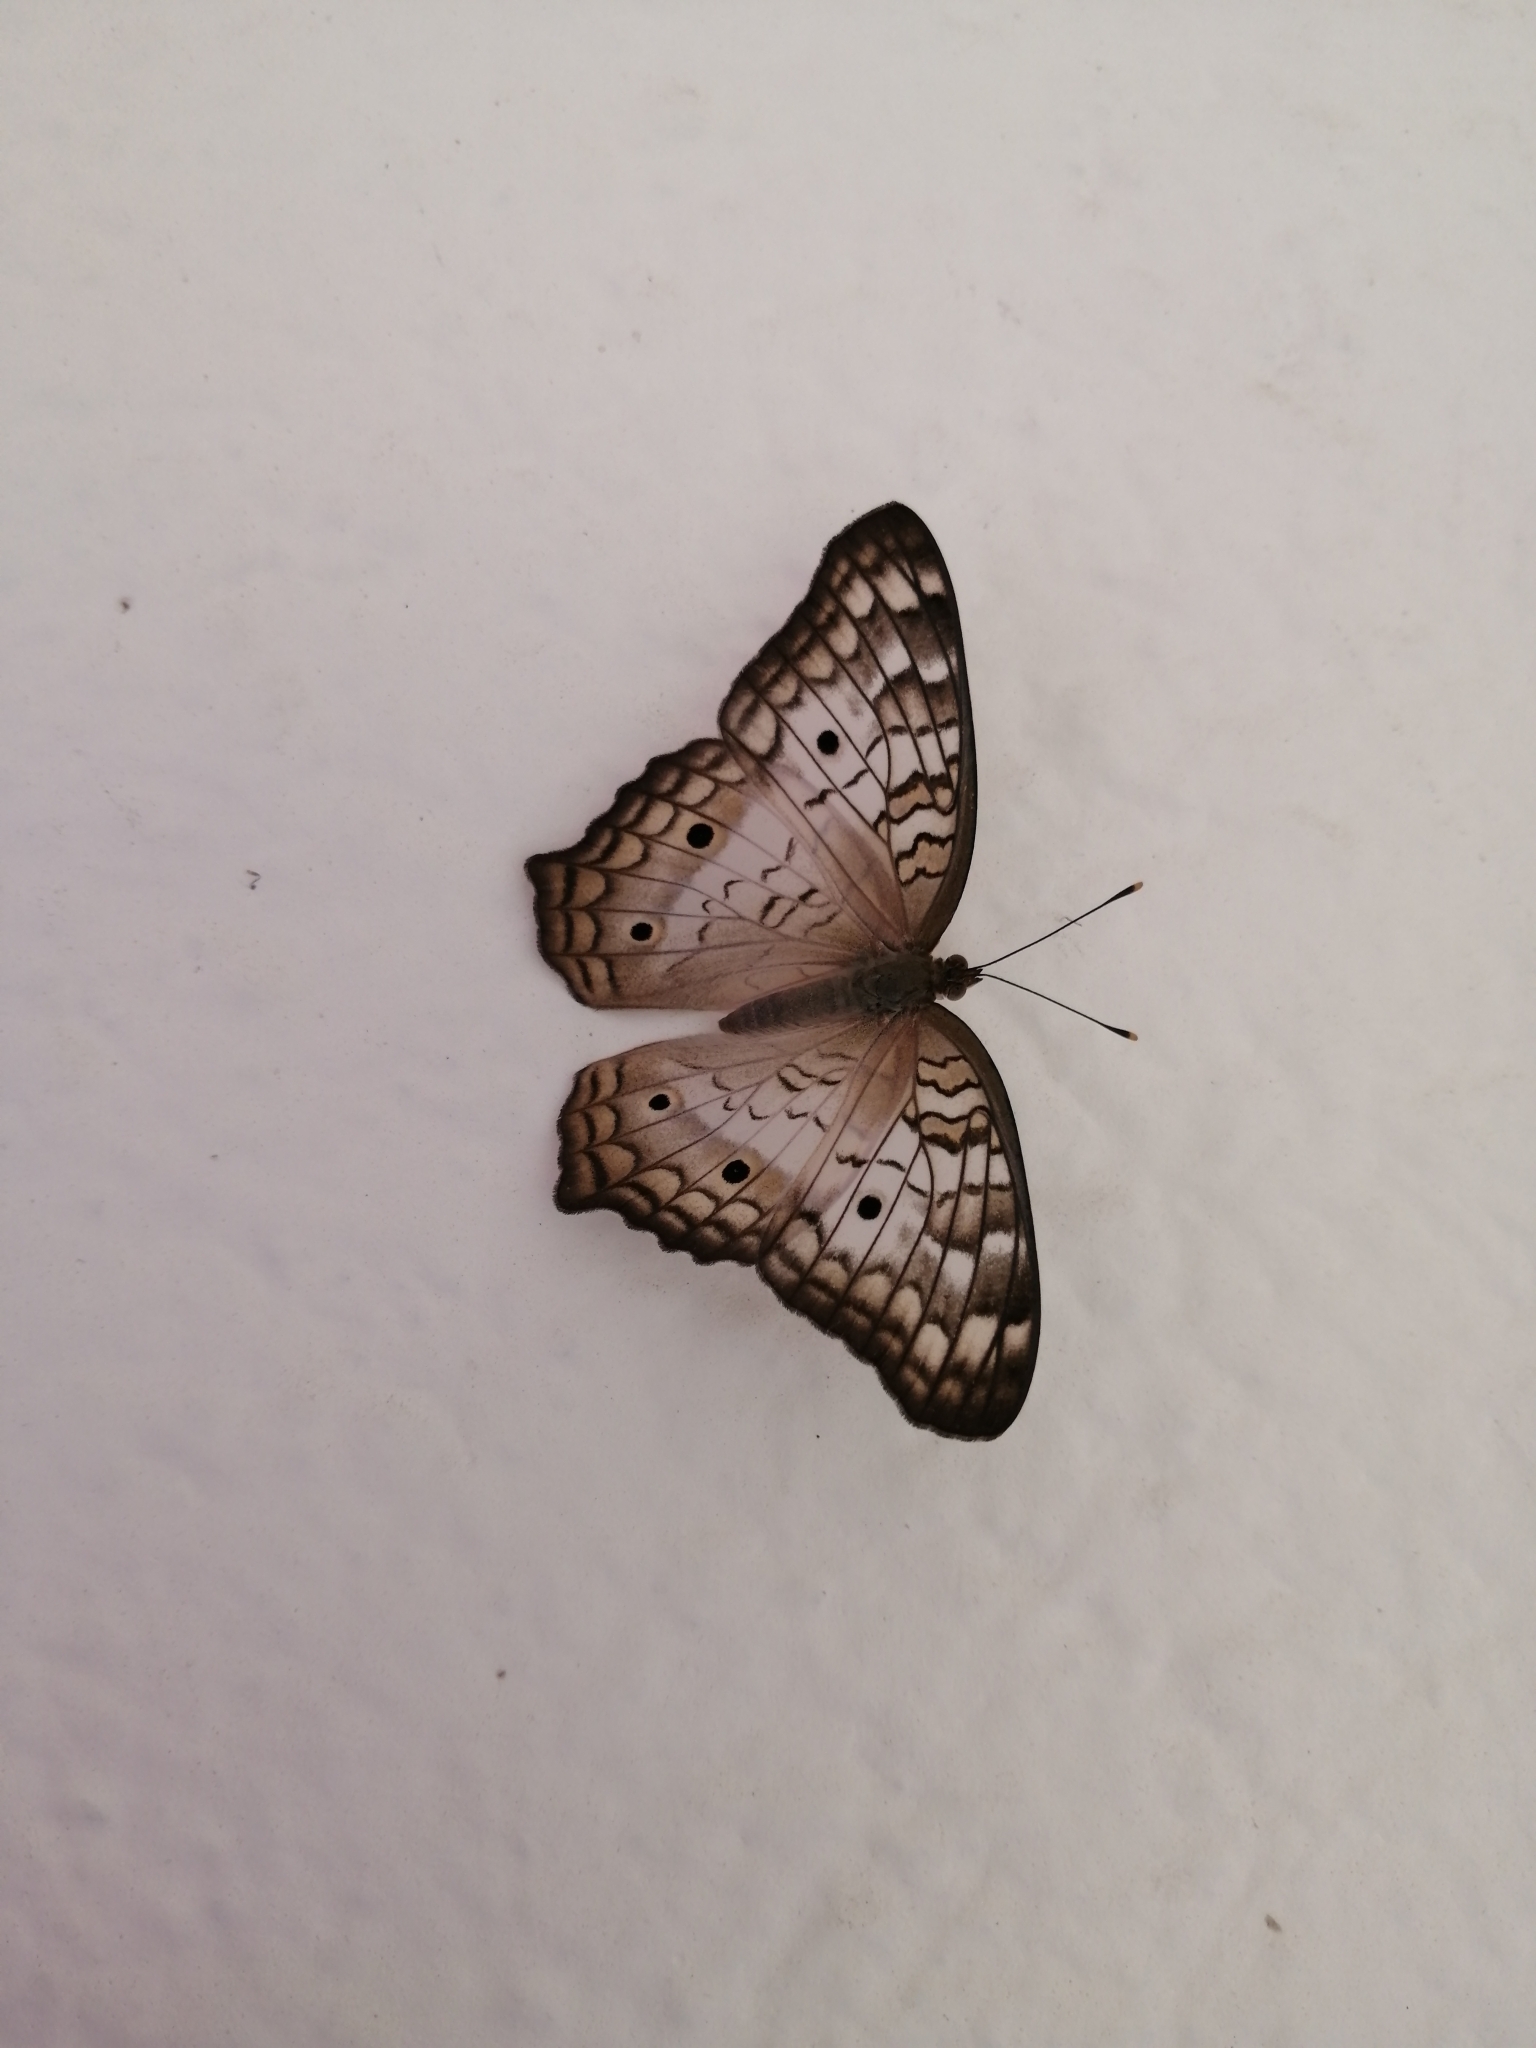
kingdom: Animalia
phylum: Arthropoda
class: Insecta
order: Lepidoptera
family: Nymphalidae
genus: Anartia
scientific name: Anartia jatrophae
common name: White peacock
